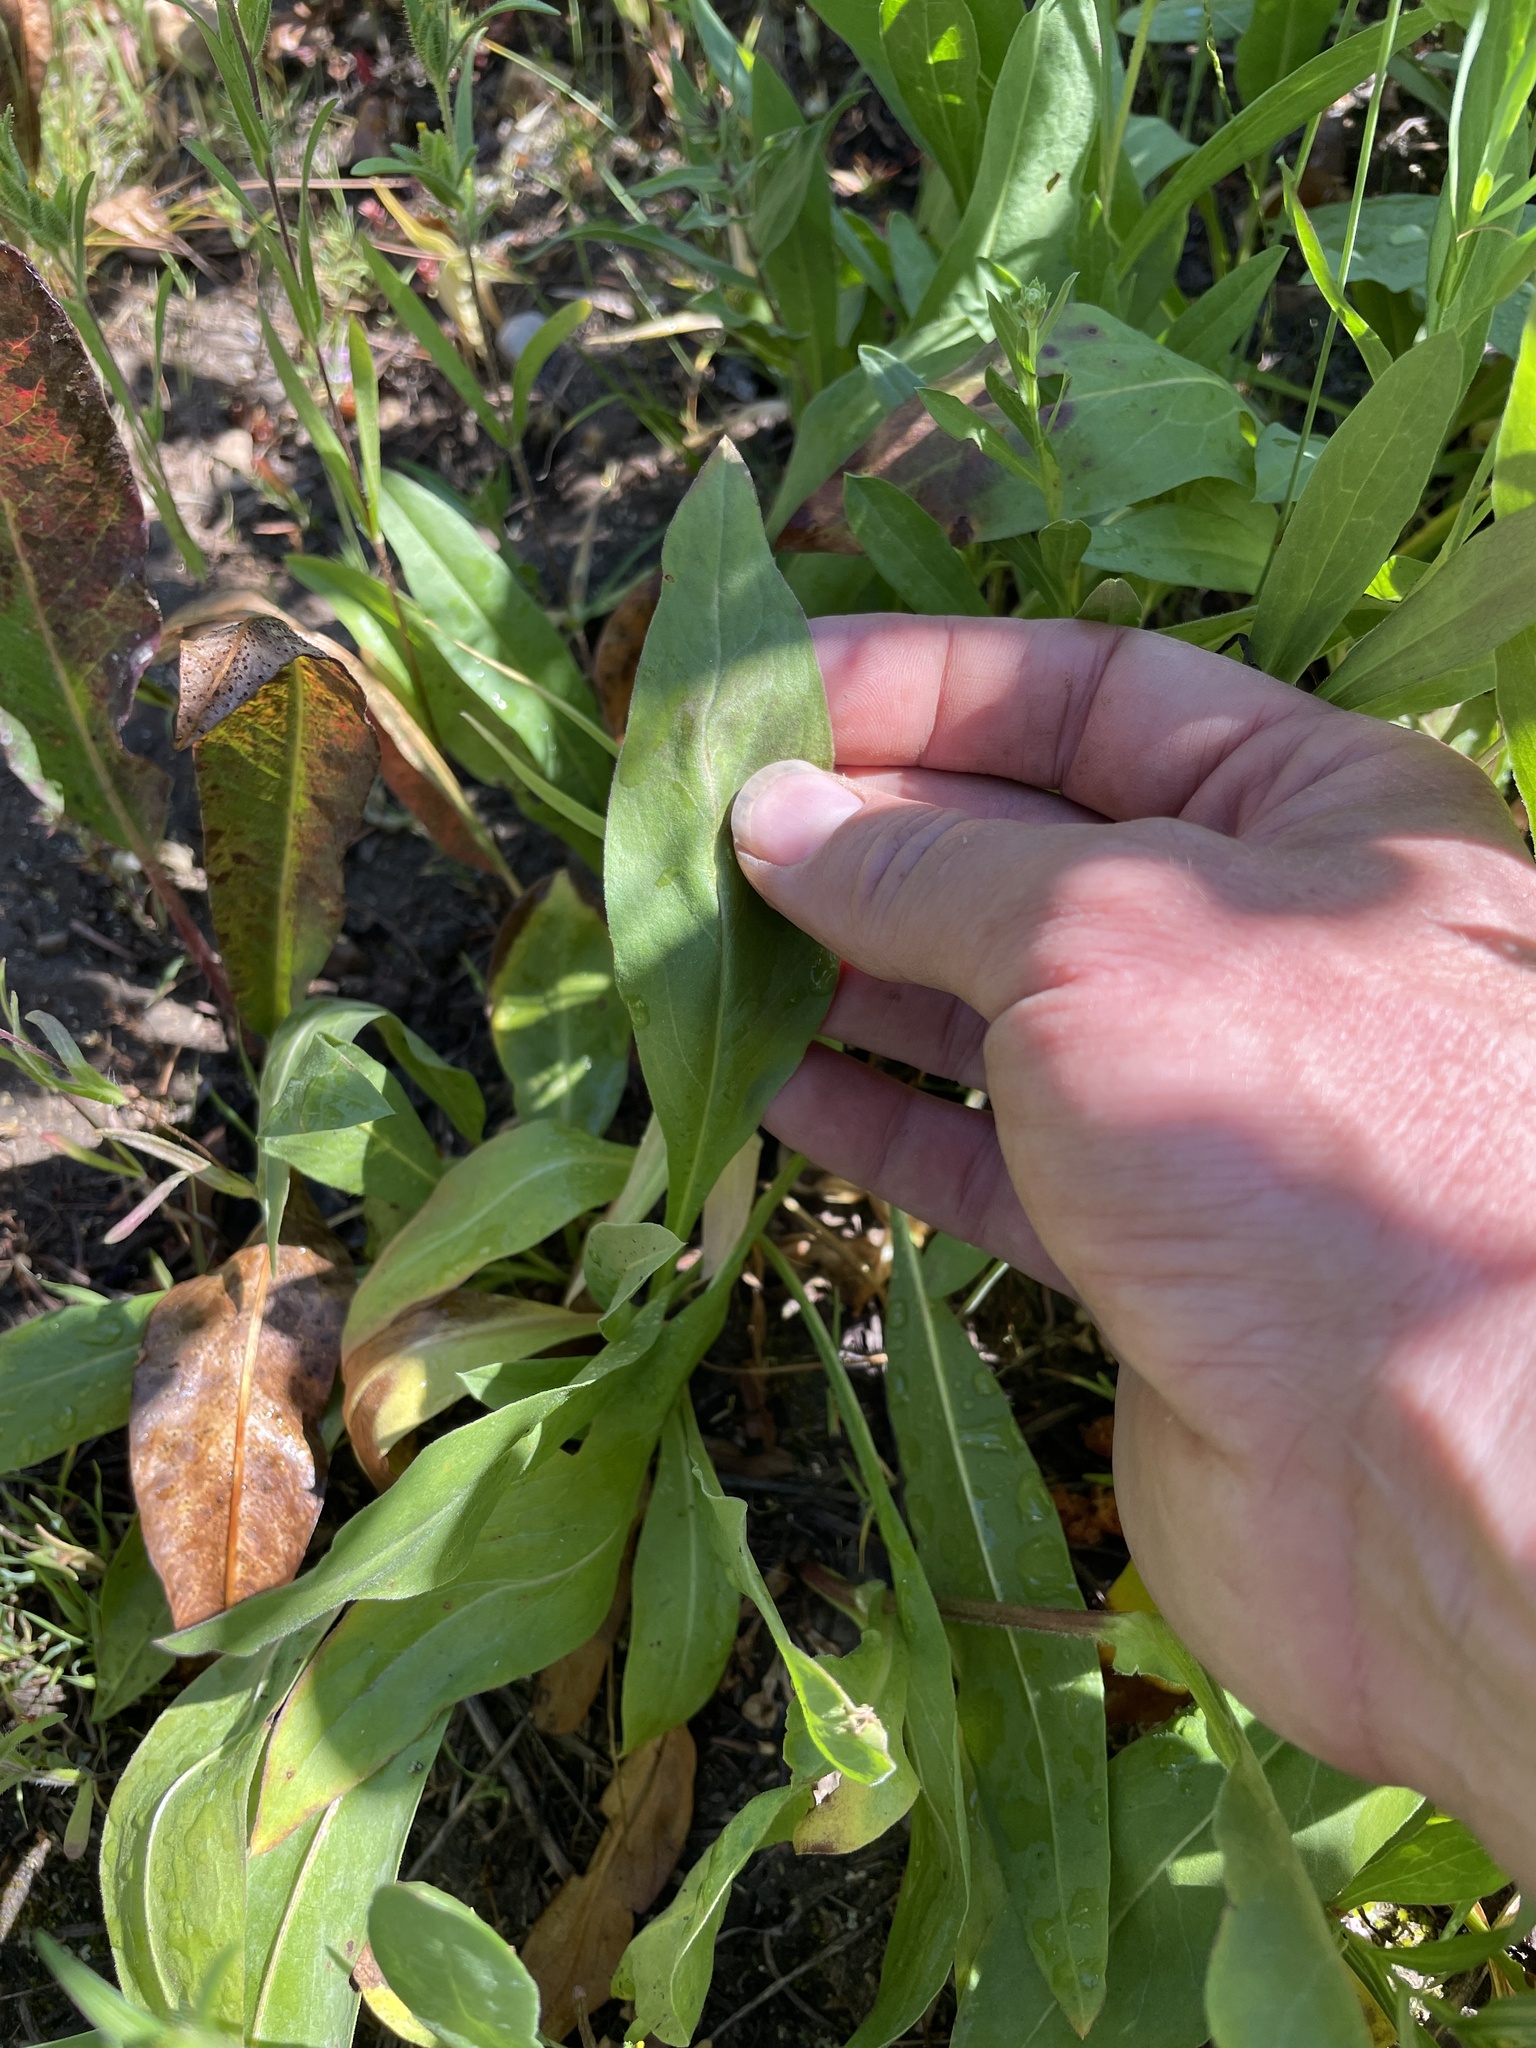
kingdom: Plantae
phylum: Tracheophyta
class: Magnoliopsida
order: Asterales
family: Asteraceae
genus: Eurybia
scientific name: Eurybia integrifolia
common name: Thick-stem aster
